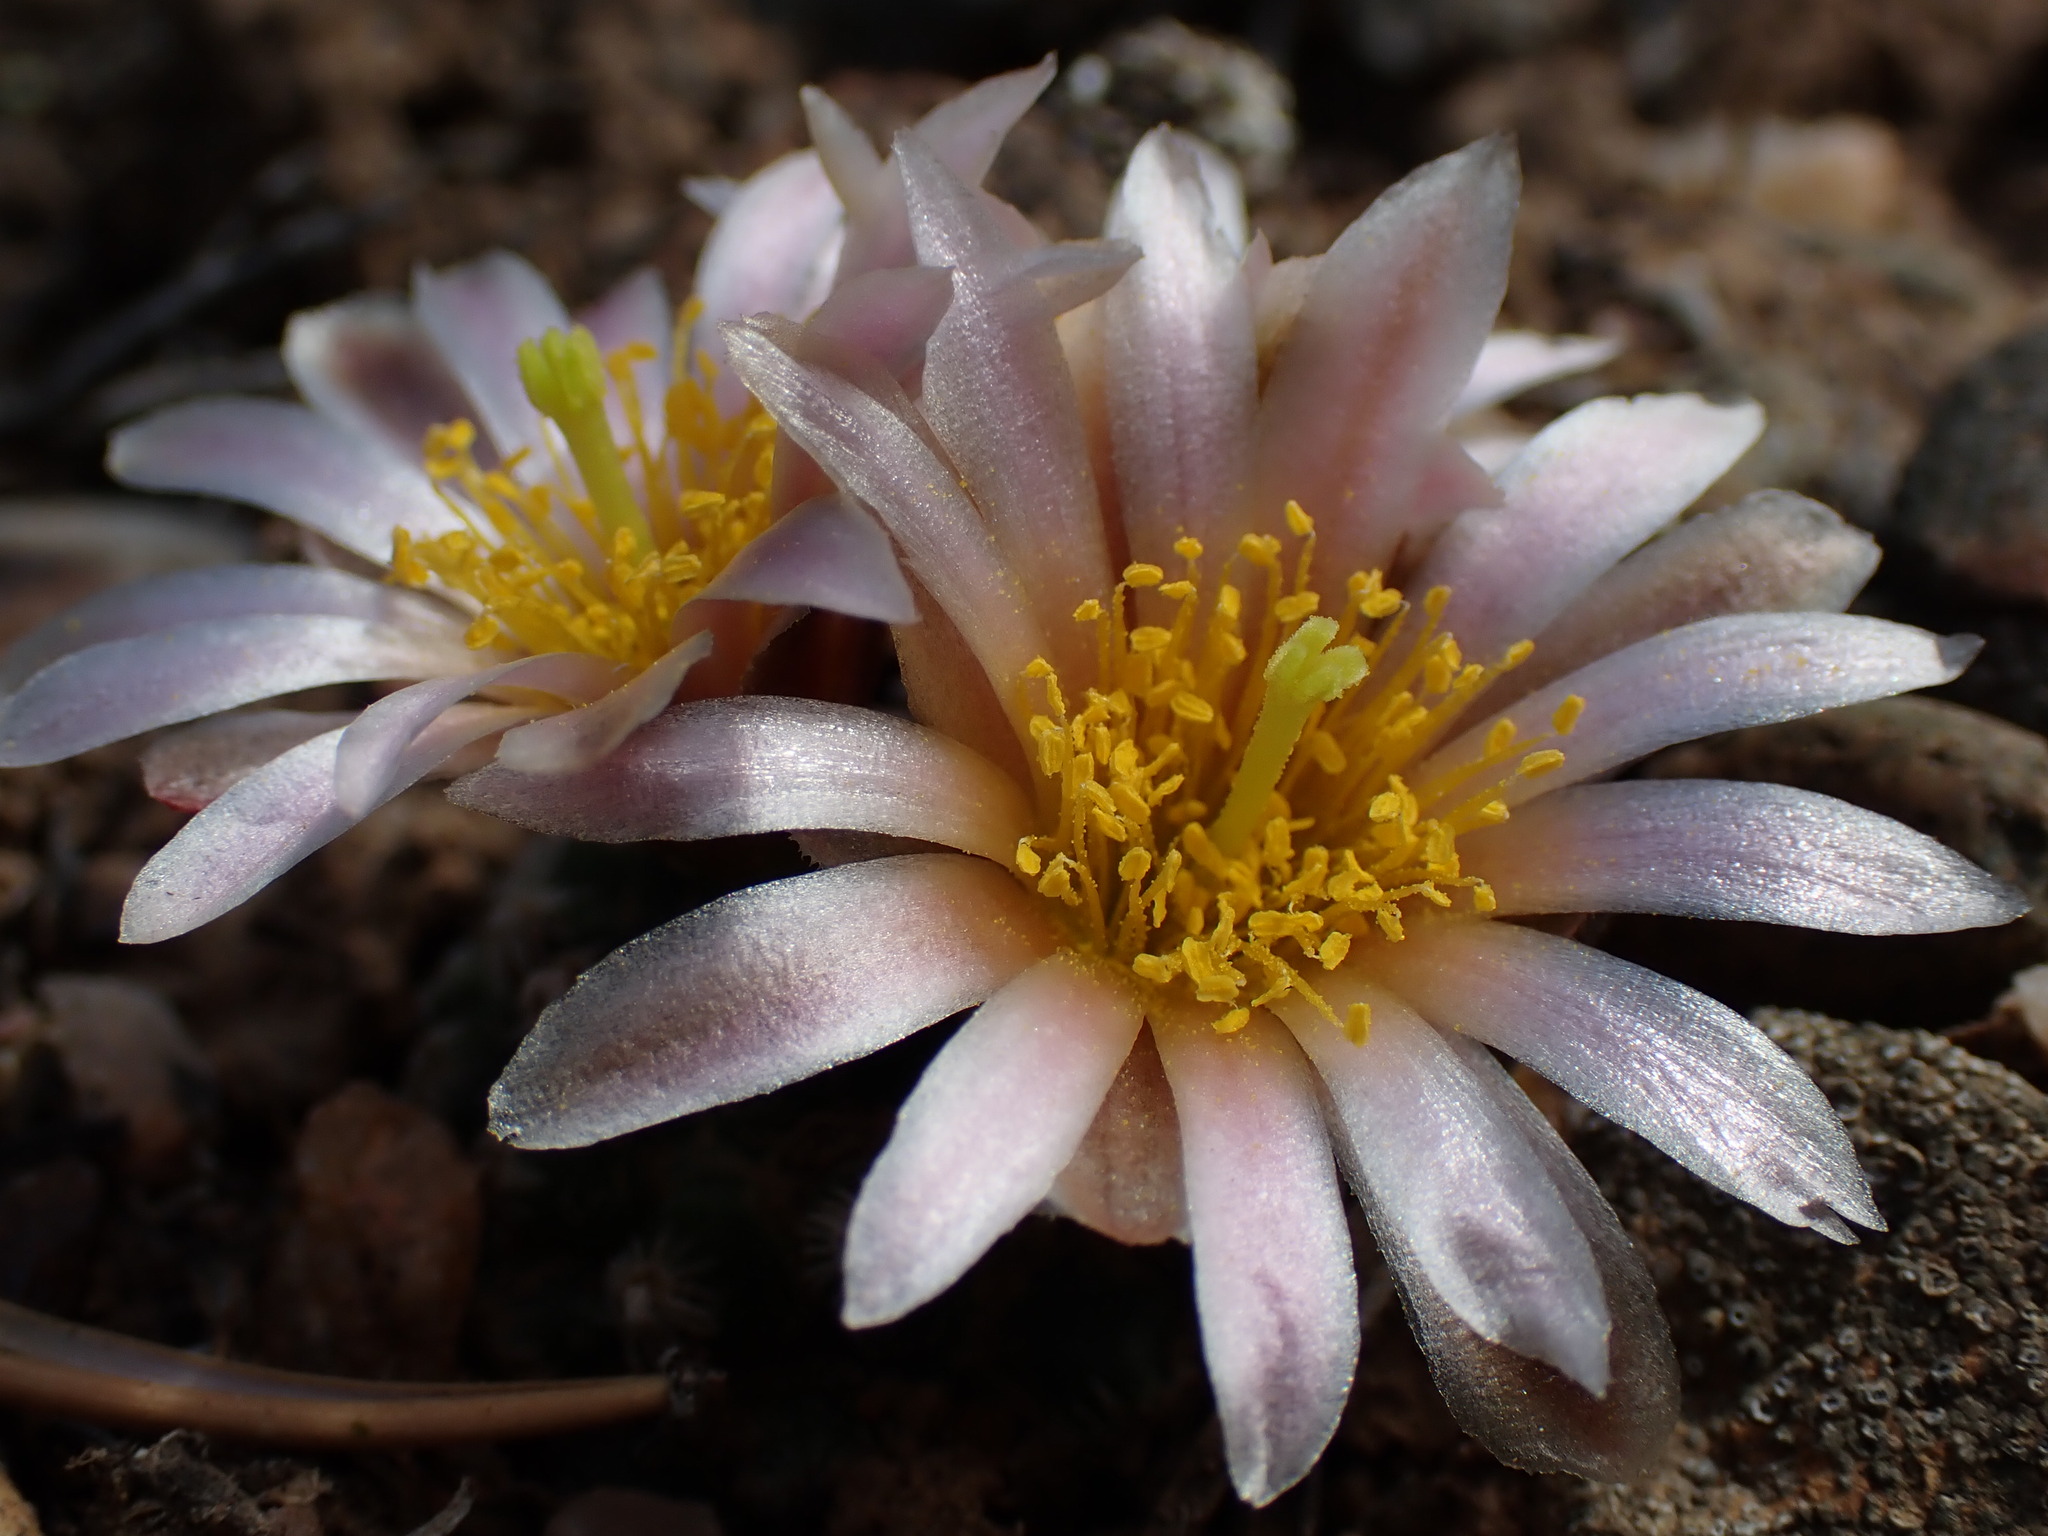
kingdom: Plantae
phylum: Tracheophyta
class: Magnoliopsida
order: Caryophyllales
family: Cactaceae
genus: Pediocactus
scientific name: Pediocactus knowltonii
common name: Knowlton's cactus
